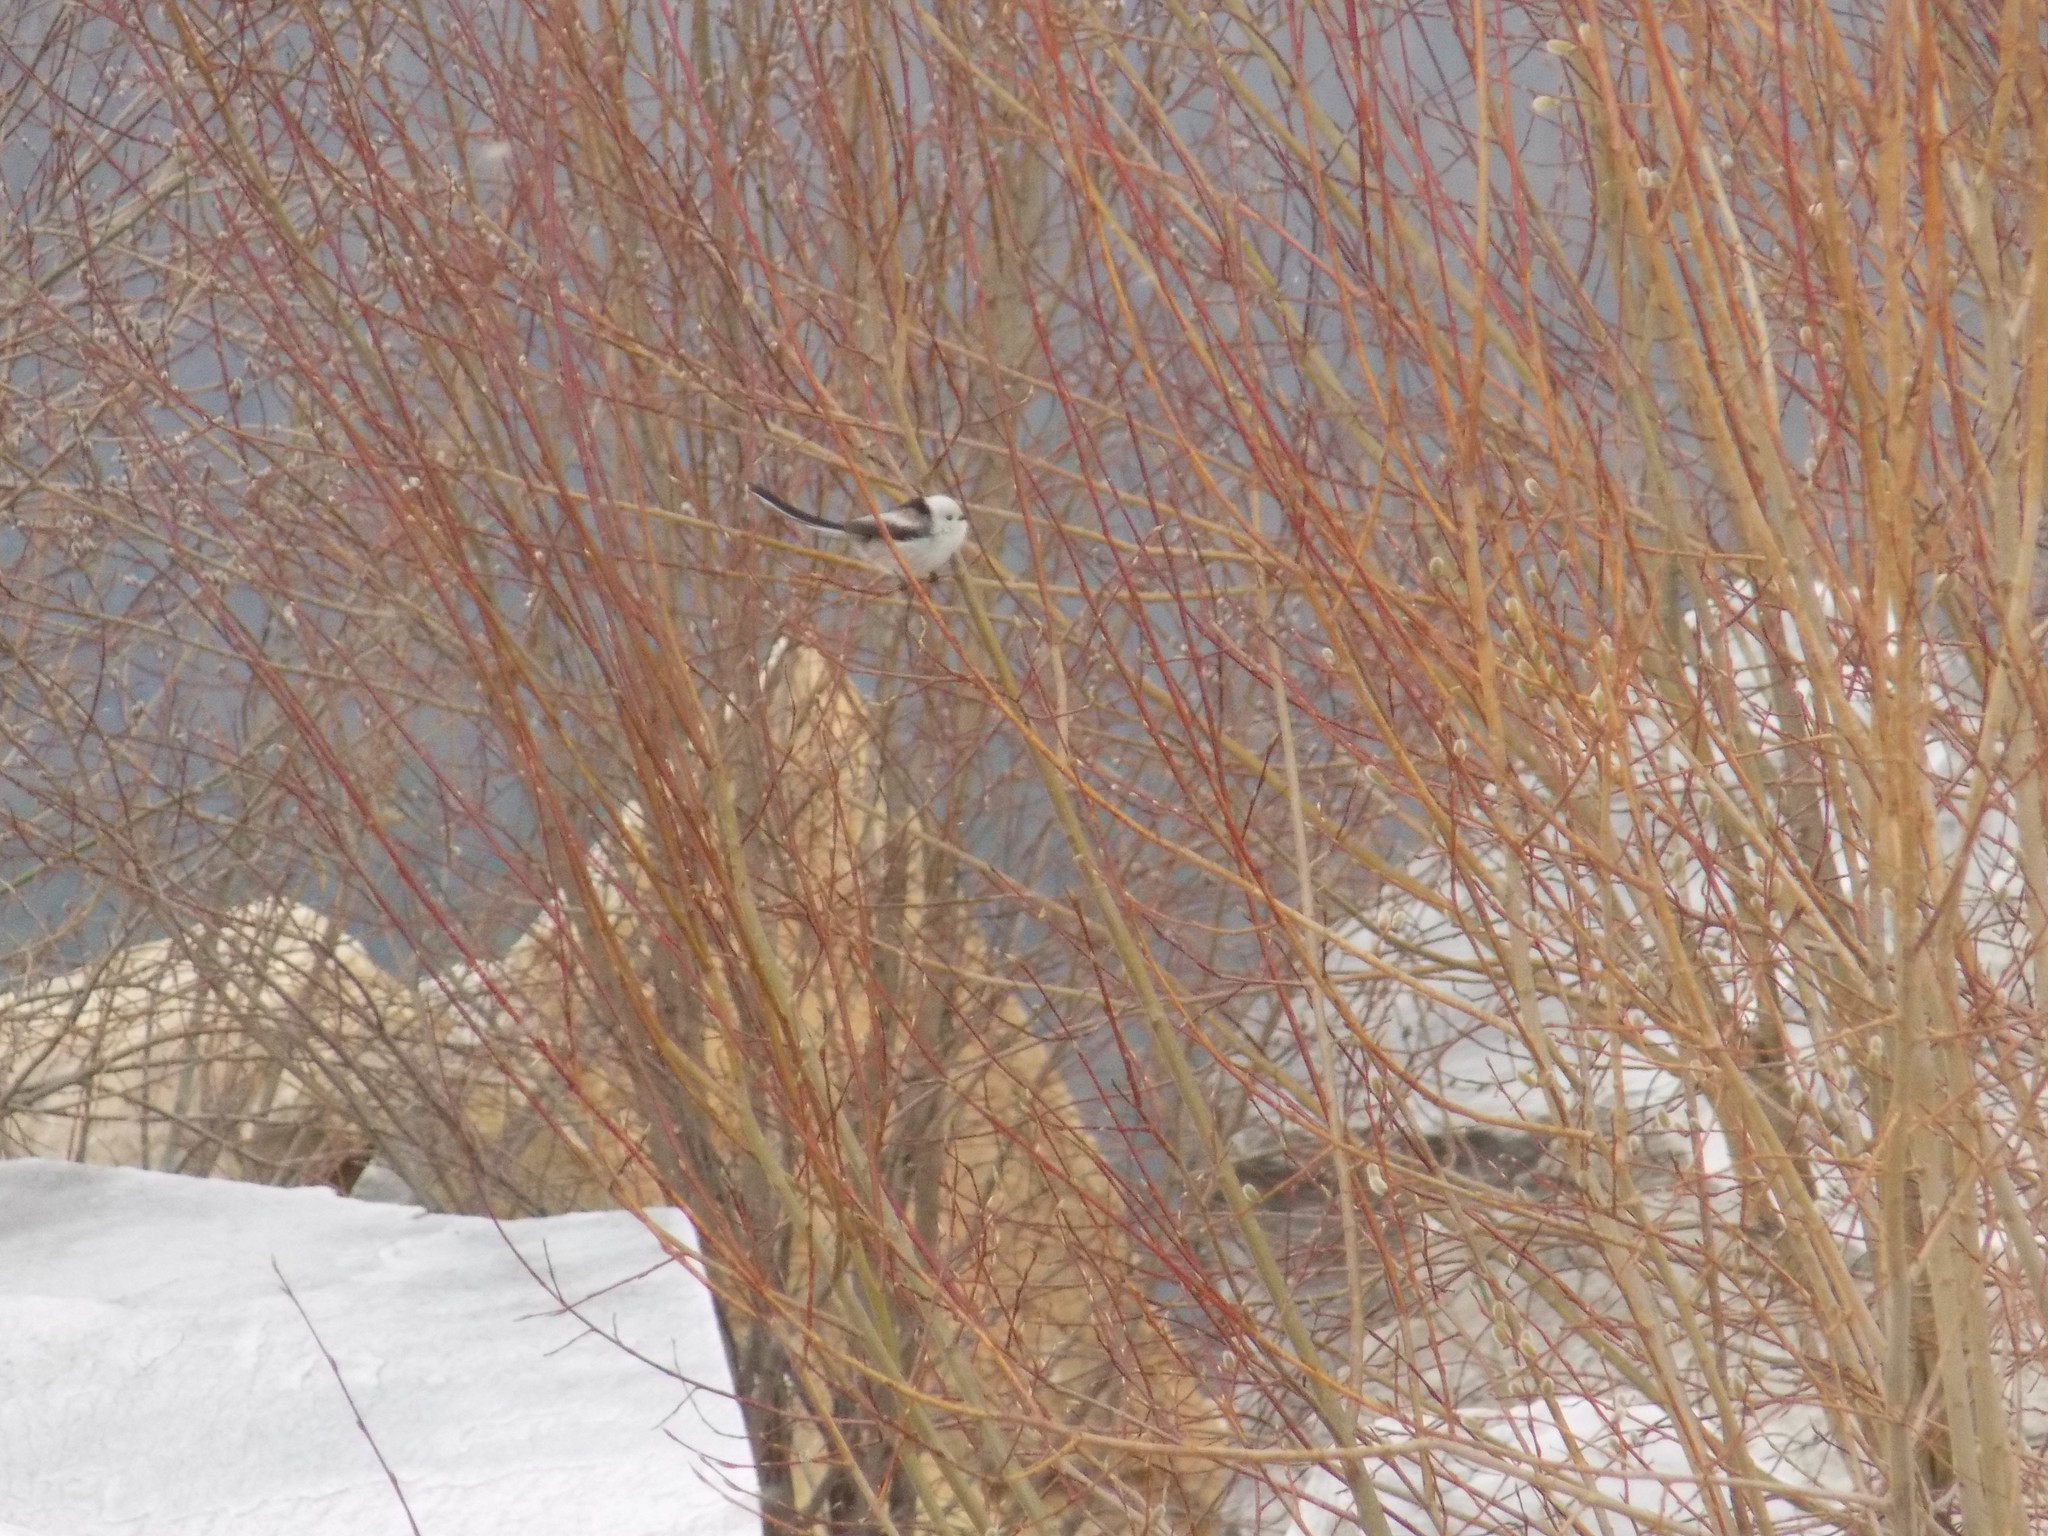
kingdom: Animalia
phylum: Chordata
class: Aves
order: Passeriformes
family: Aegithalidae
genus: Aegithalos
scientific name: Aegithalos caudatus
